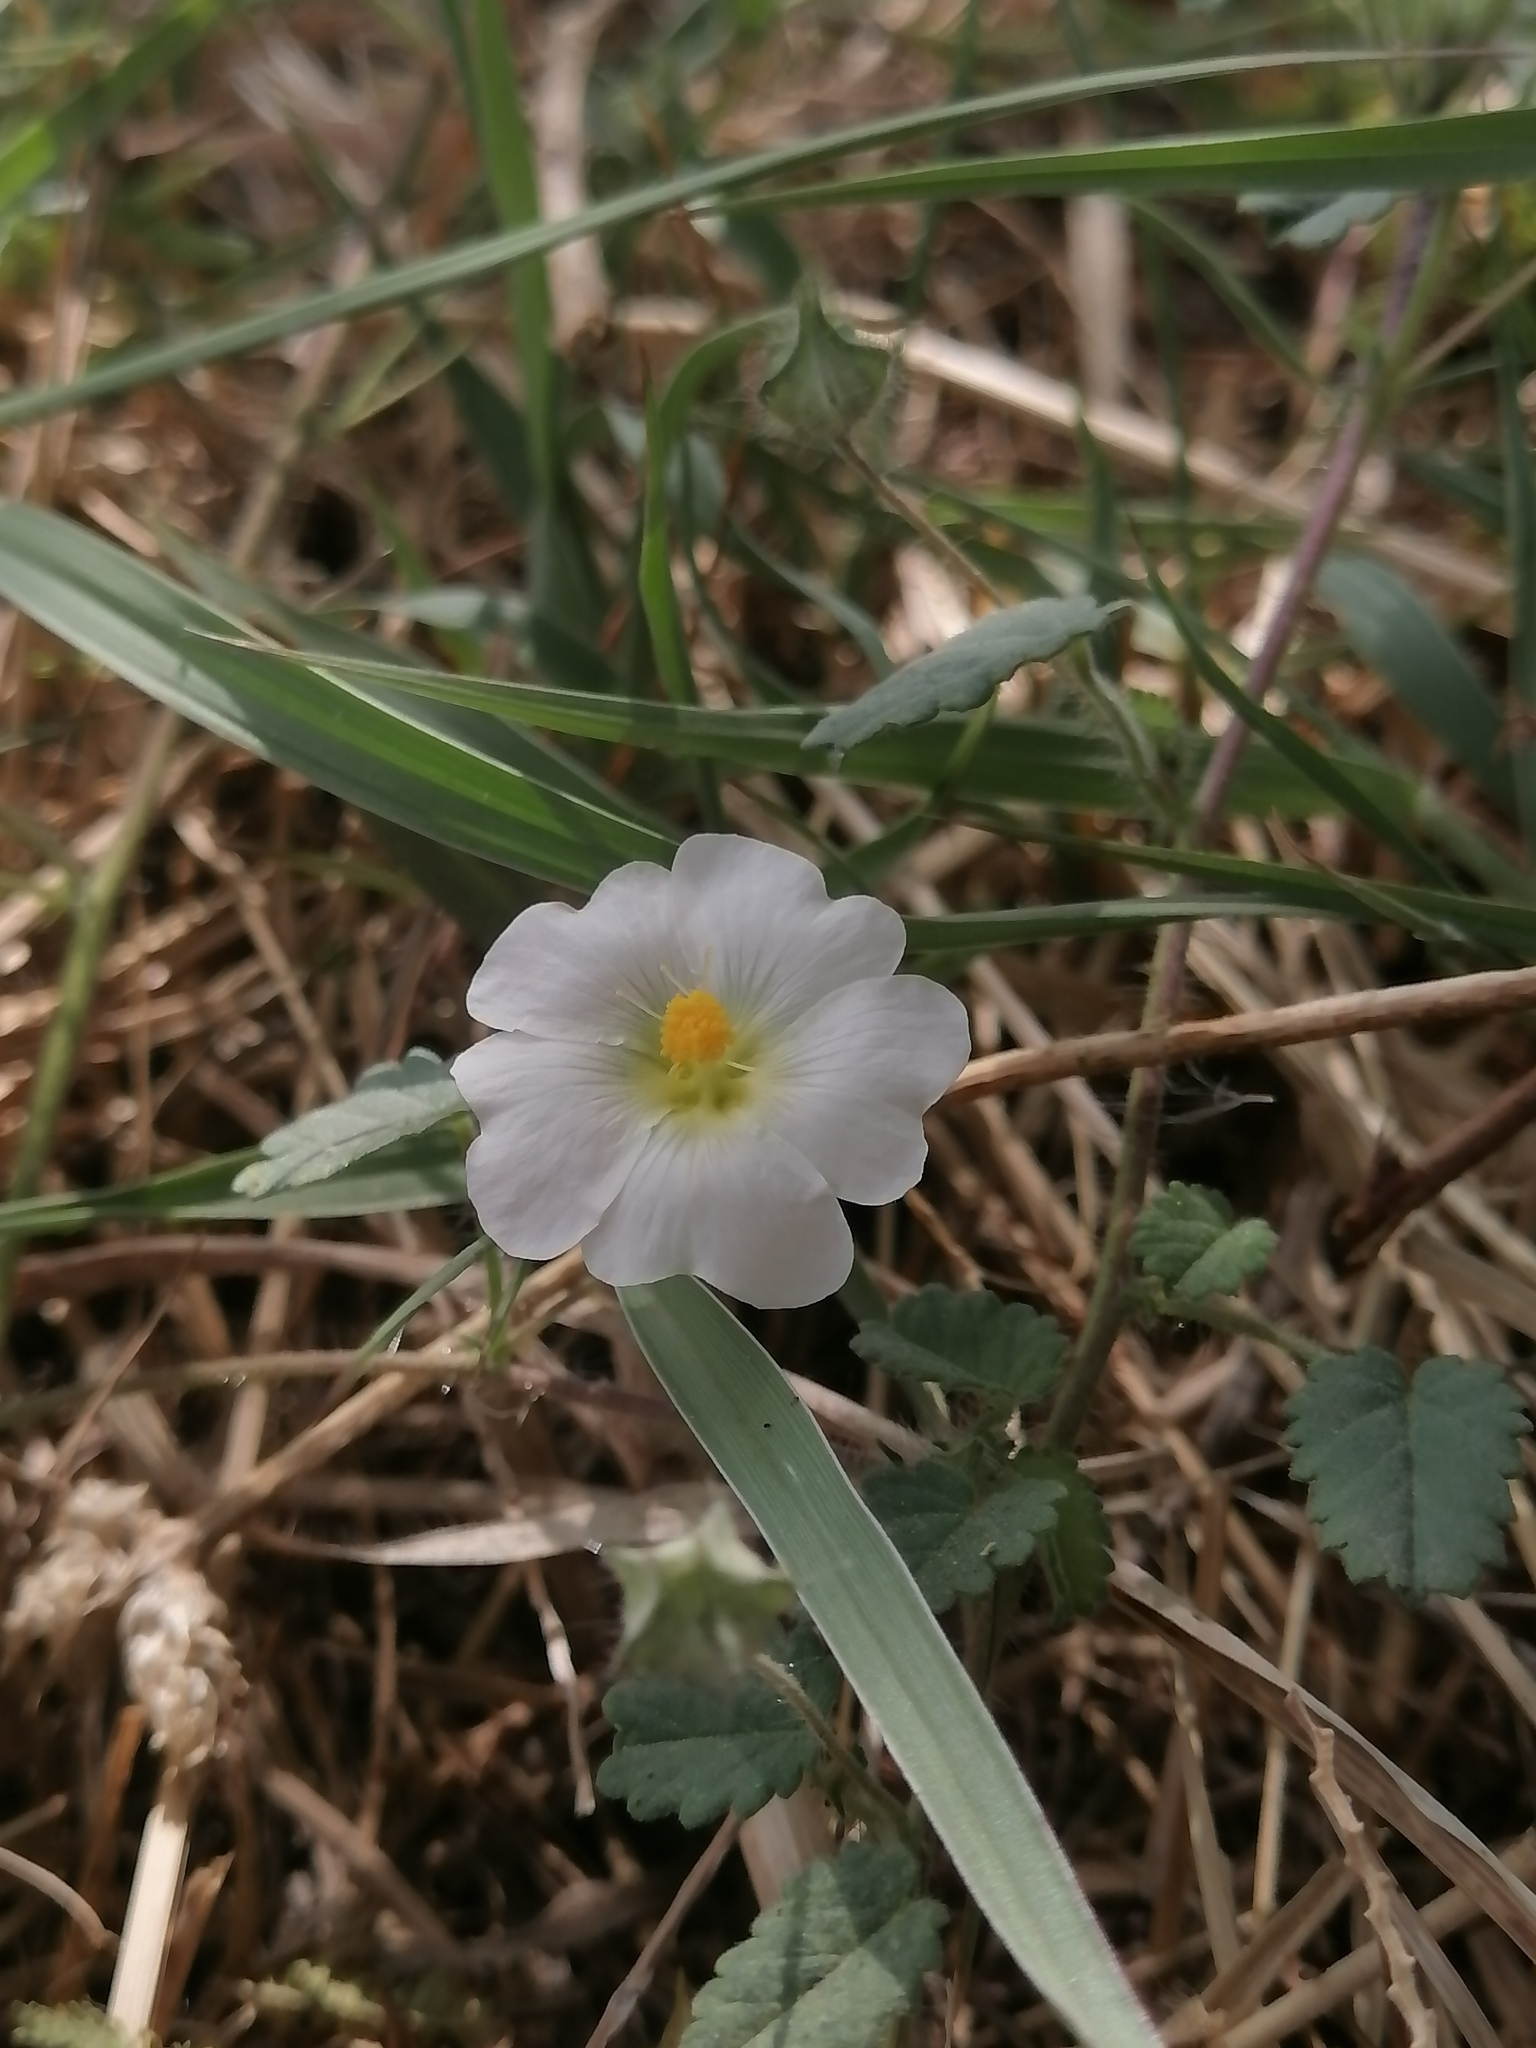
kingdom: Plantae
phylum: Tracheophyta
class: Magnoliopsida
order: Malvales
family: Malvaceae
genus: Sida
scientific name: Sida abutilifolia
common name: Spreading fanpetals
